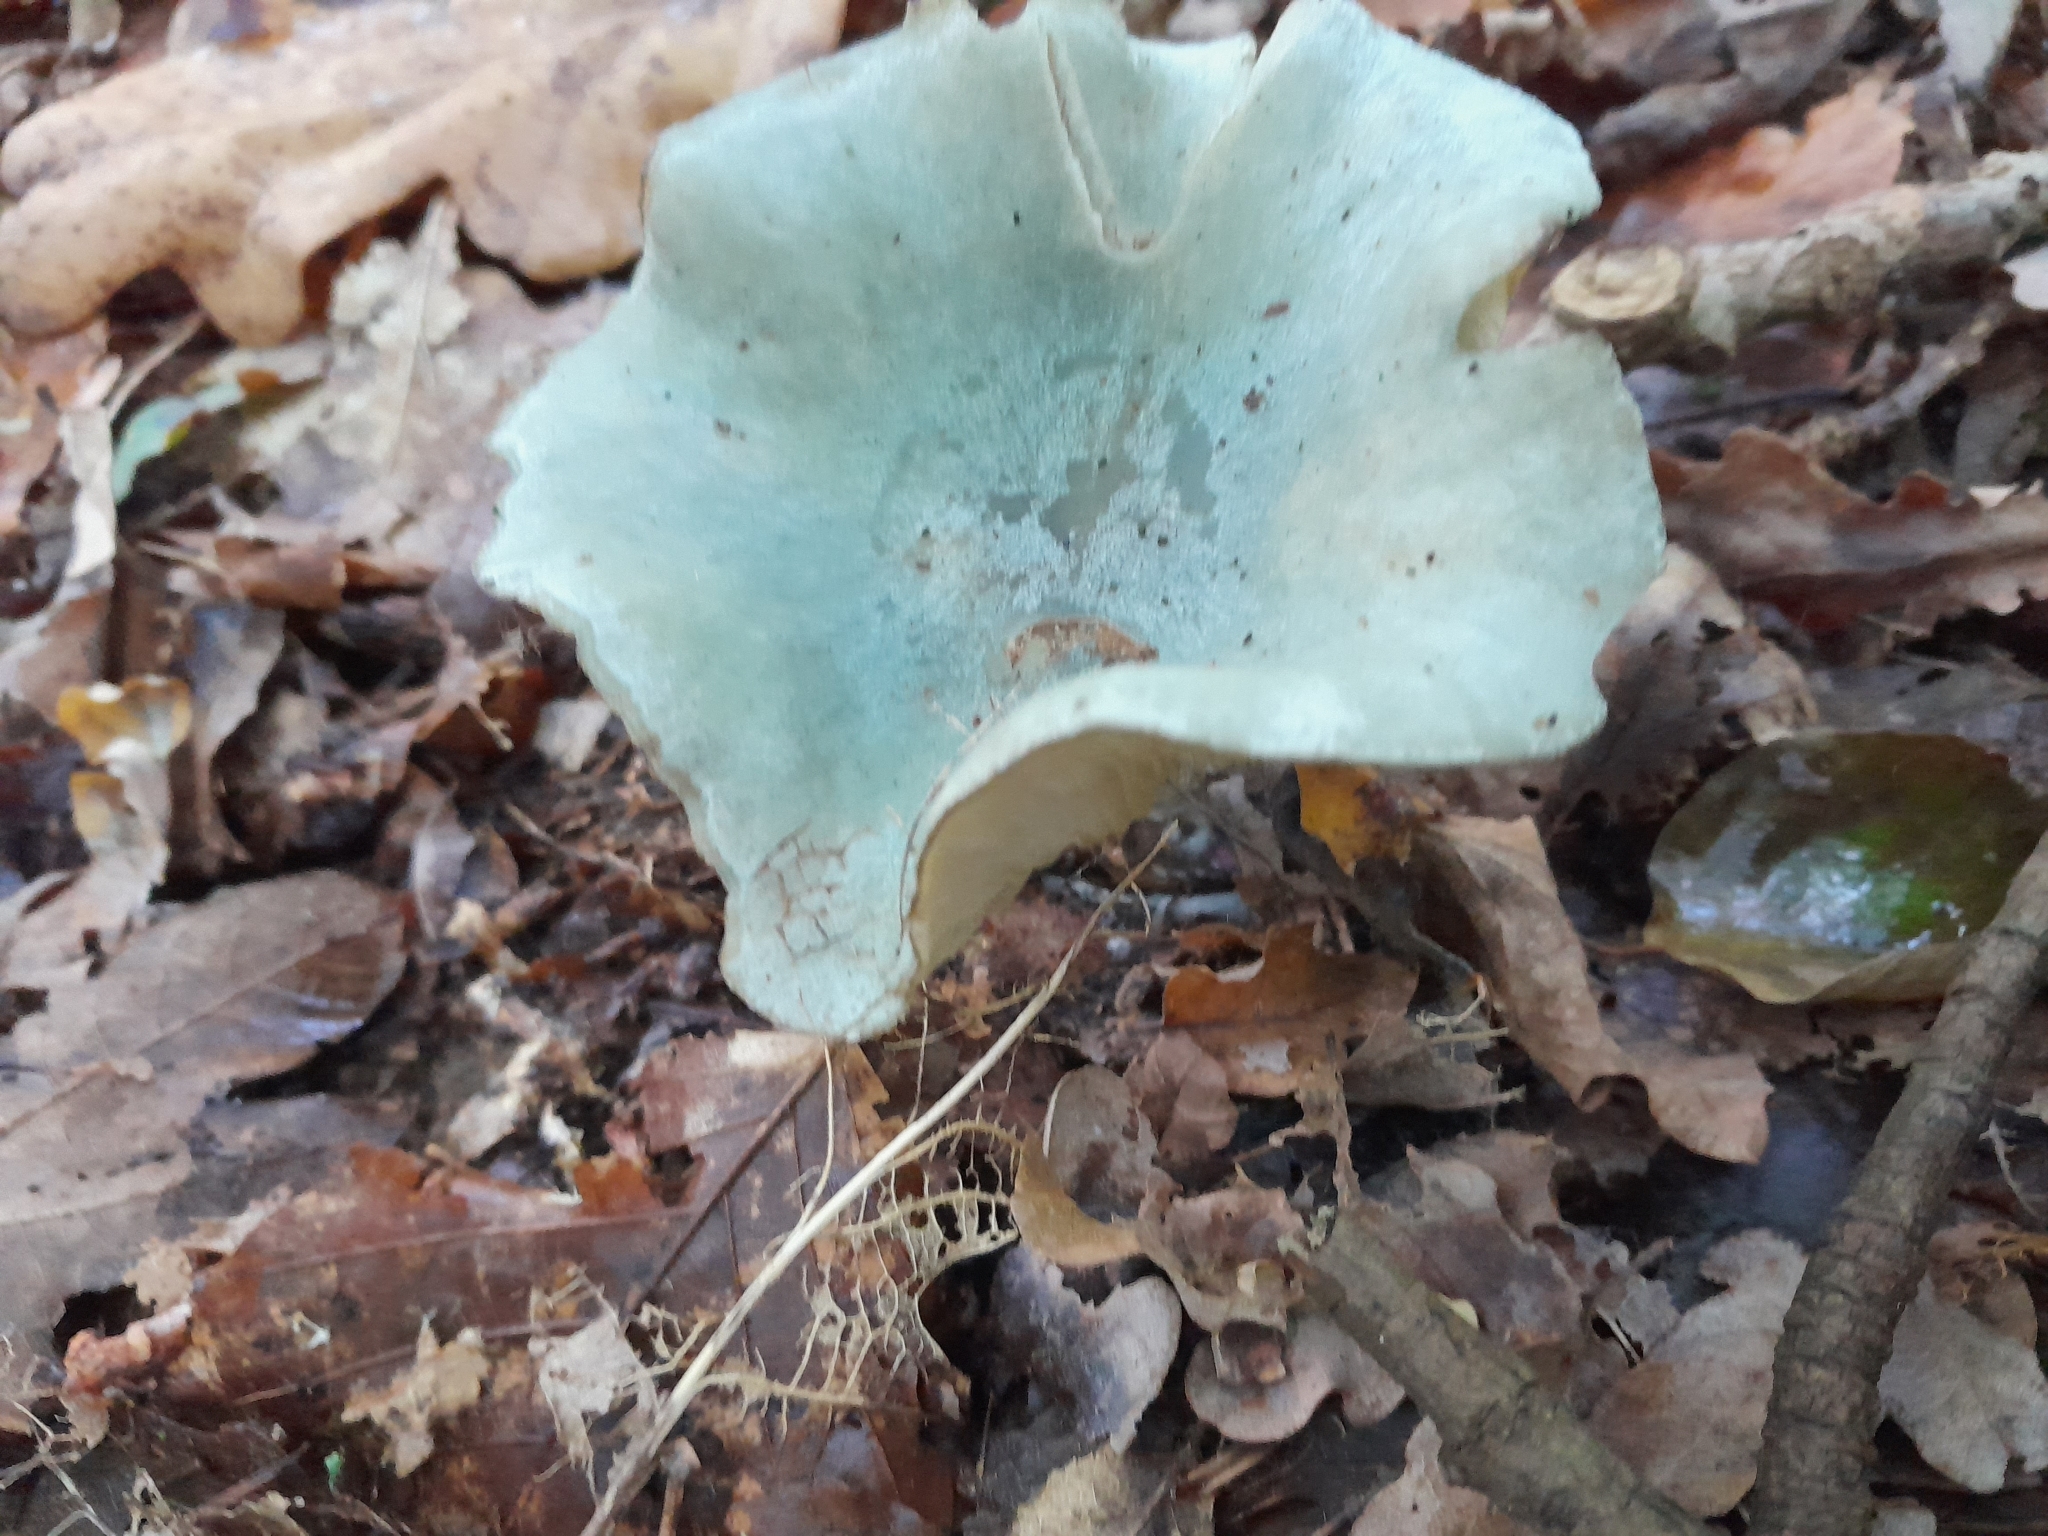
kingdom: Fungi
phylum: Basidiomycota
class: Agaricomycetes
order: Agaricales
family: Tricholomataceae
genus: Collybia
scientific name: Collybia
